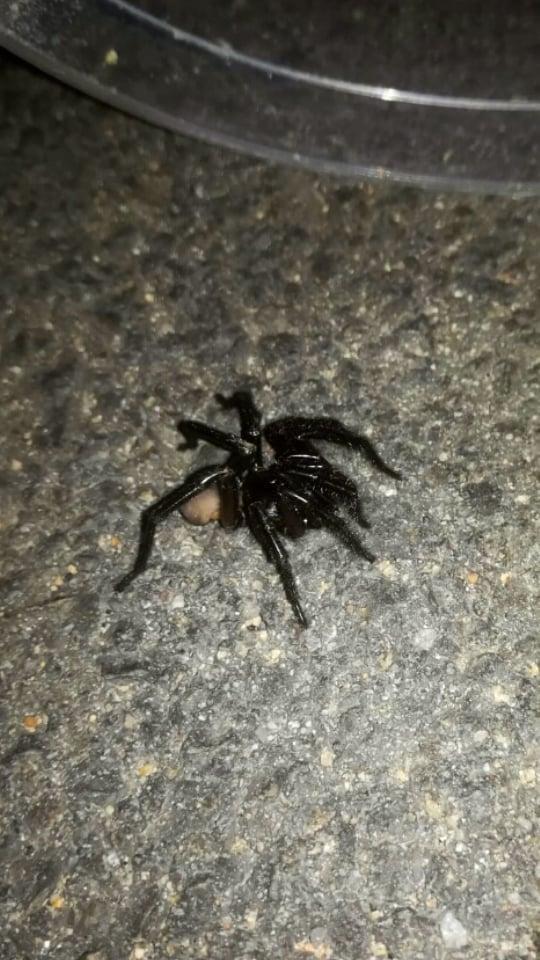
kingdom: Animalia
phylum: Arthropoda
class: Arachnida
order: Araneae
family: Ctenizidae
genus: Cteniza
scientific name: Cteniza sauvagesi
